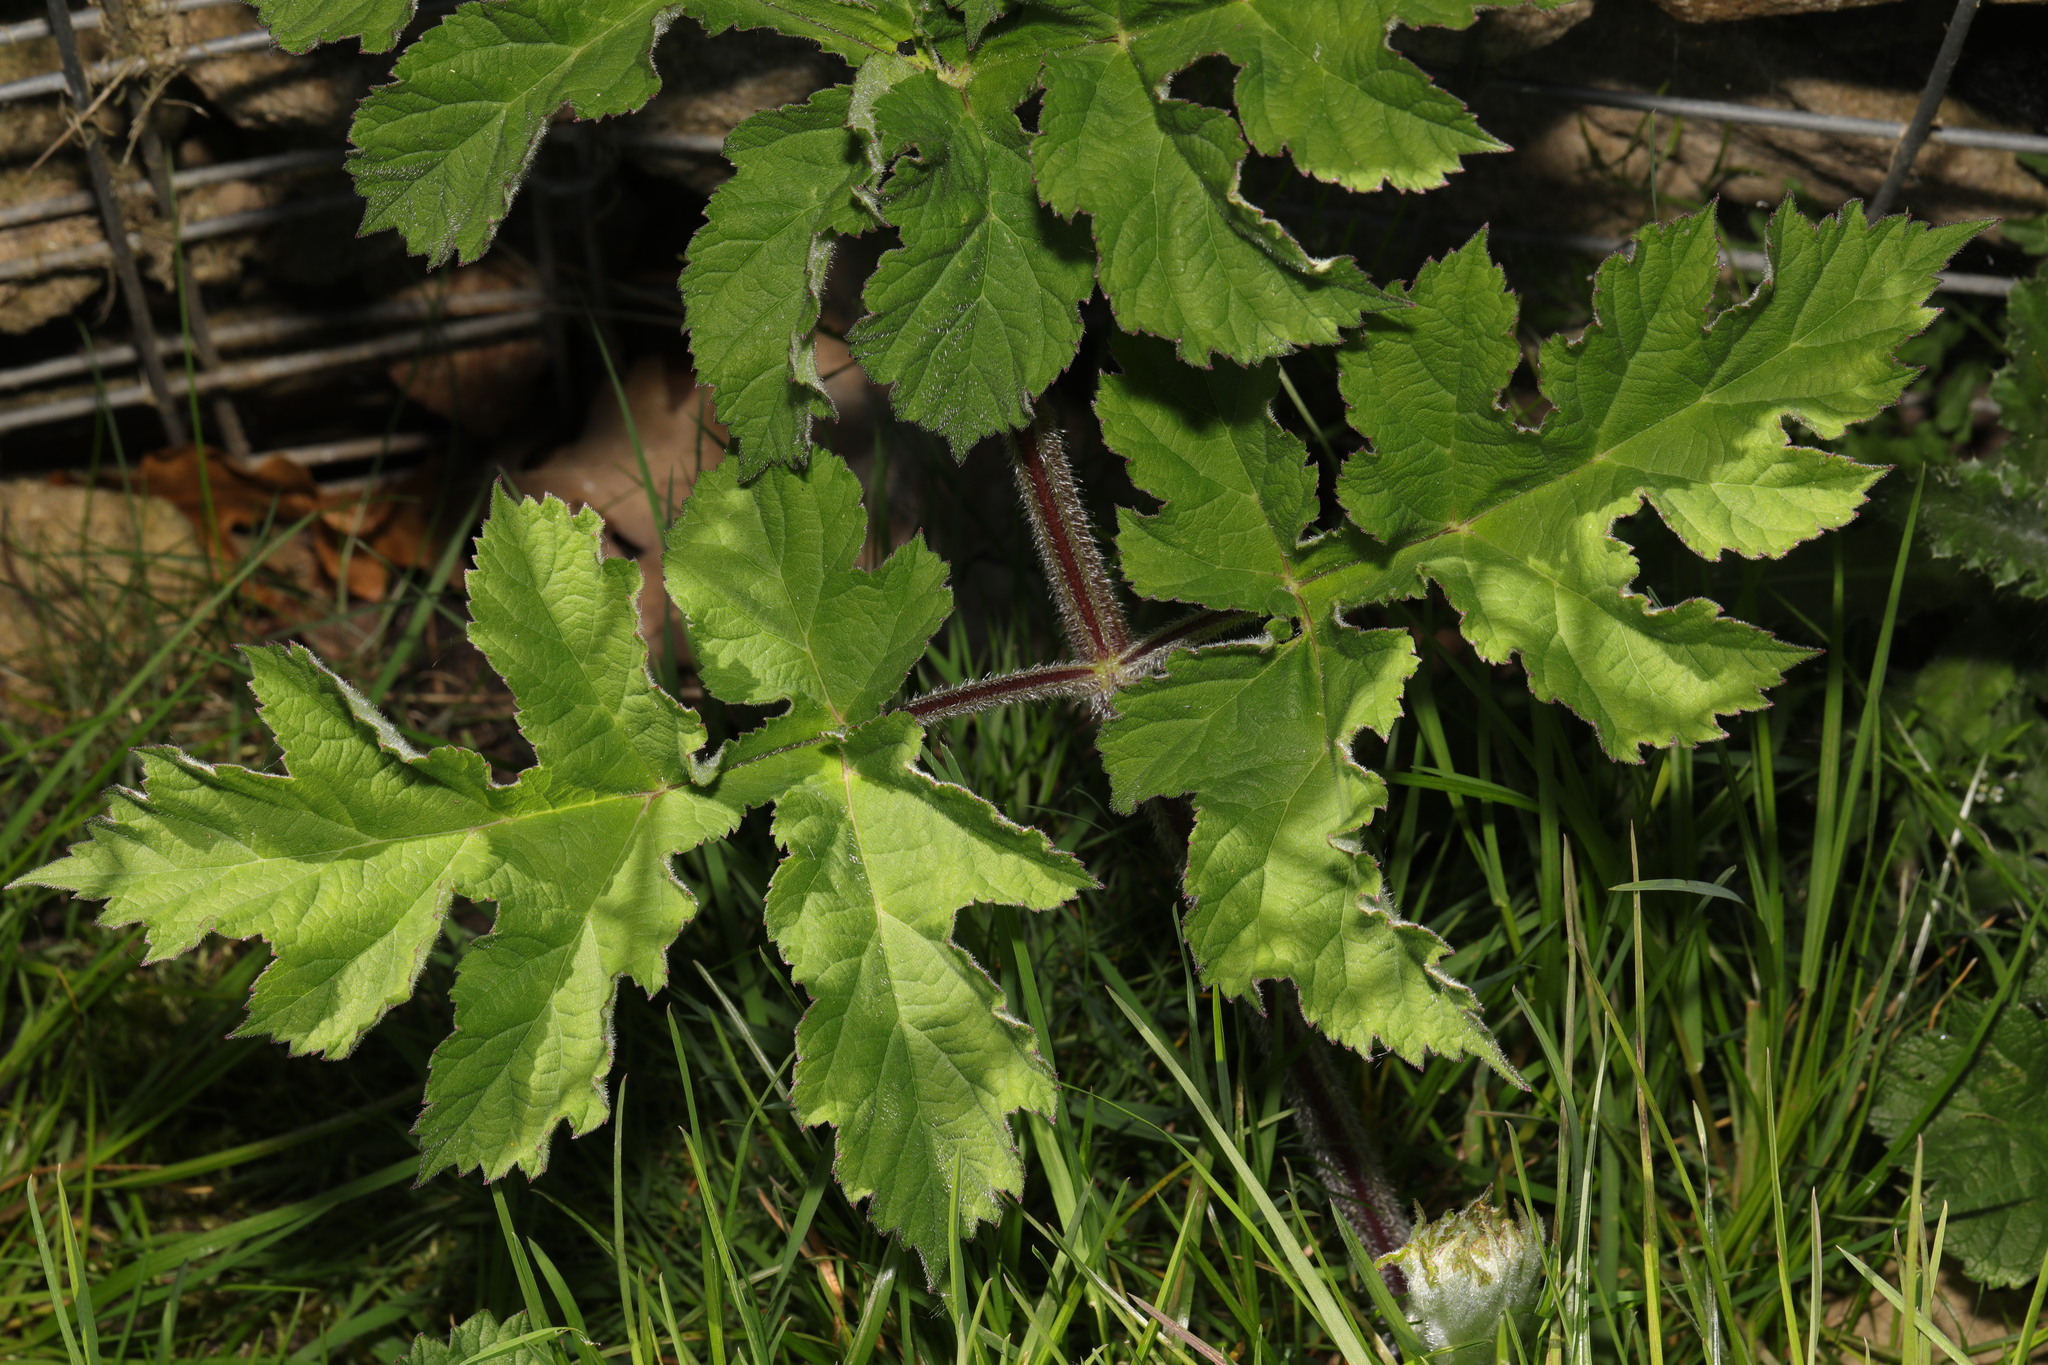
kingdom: Plantae
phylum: Tracheophyta
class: Magnoliopsida
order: Apiales
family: Apiaceae
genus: Heracleum
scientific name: Heracleum sphondylium
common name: Hogweed
